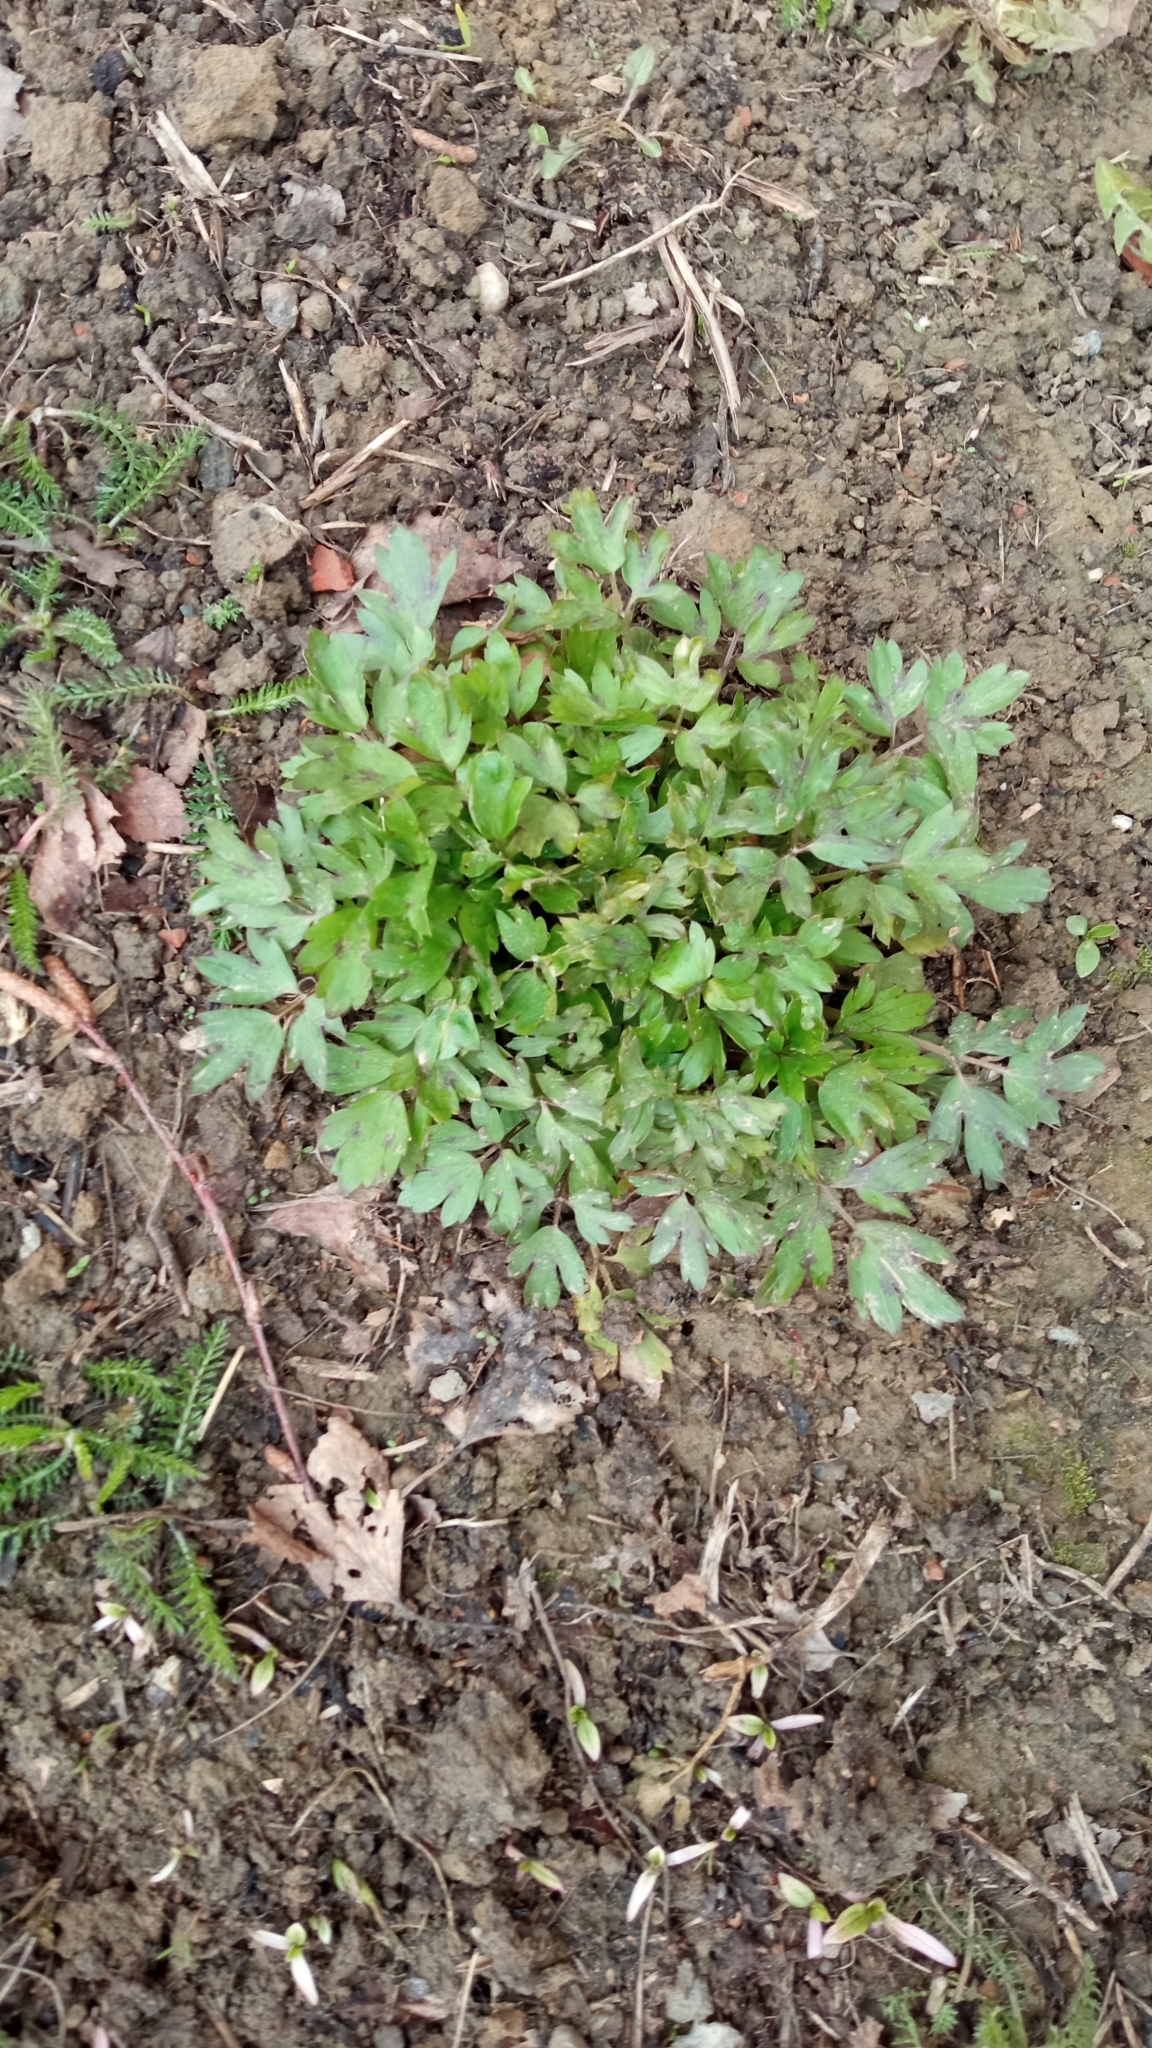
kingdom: Plantae
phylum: Tracheophyta
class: Magnoliopsida
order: Ranunculales
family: Ranunculaceae
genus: Ranunculus
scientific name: Ranunculus repens
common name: Creeping buttercup
